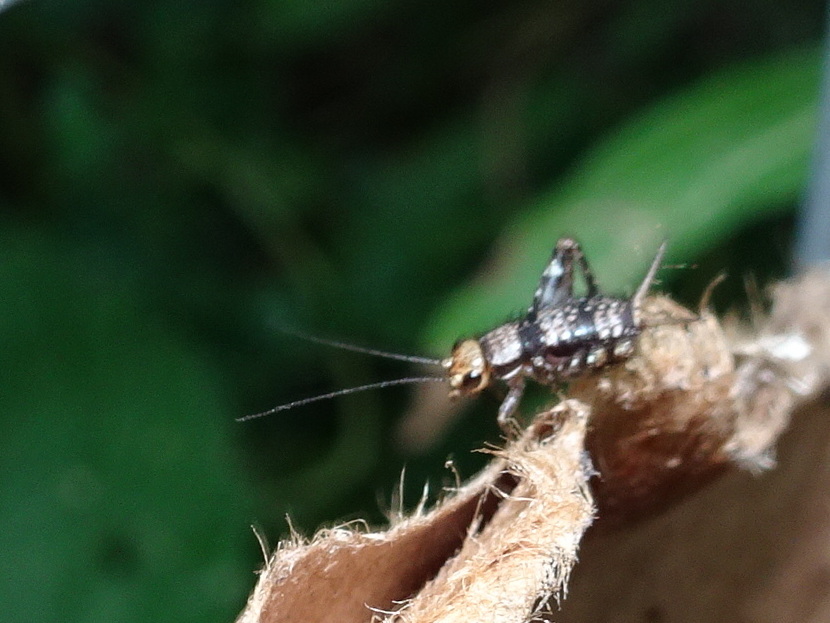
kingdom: Animalia
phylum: Arthropoda
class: Insecta
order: Orthoptera
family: Trigonidiidae
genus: Allonemobius
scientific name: Allonemobius maculatus
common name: Larger spotted ground cricket
